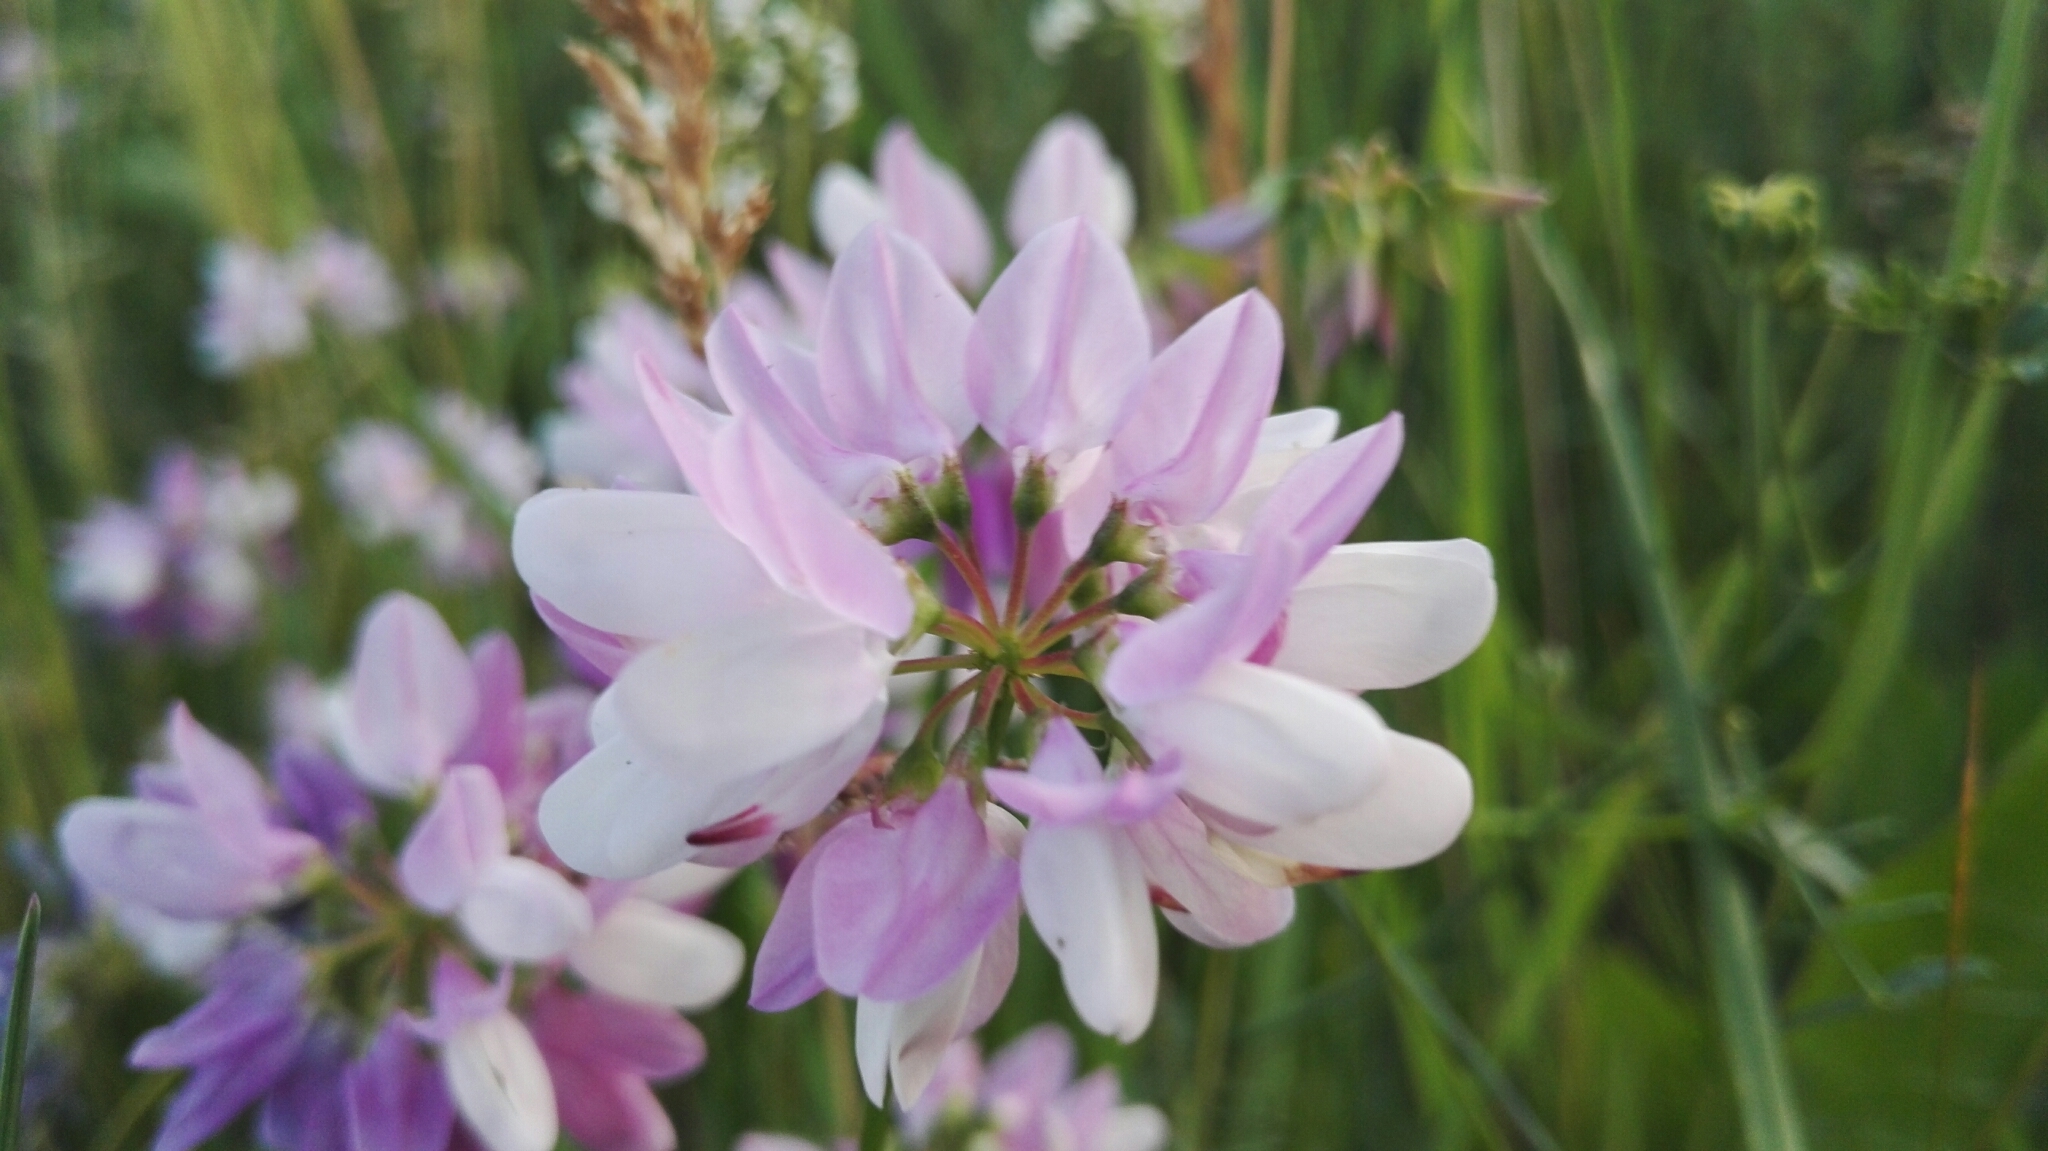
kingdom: Plantae
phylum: Tracheophyta
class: Magnoliopsida
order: Fabales
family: Fabaceae
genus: Coronilla
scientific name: Coronilla varia
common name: Crownvetch
